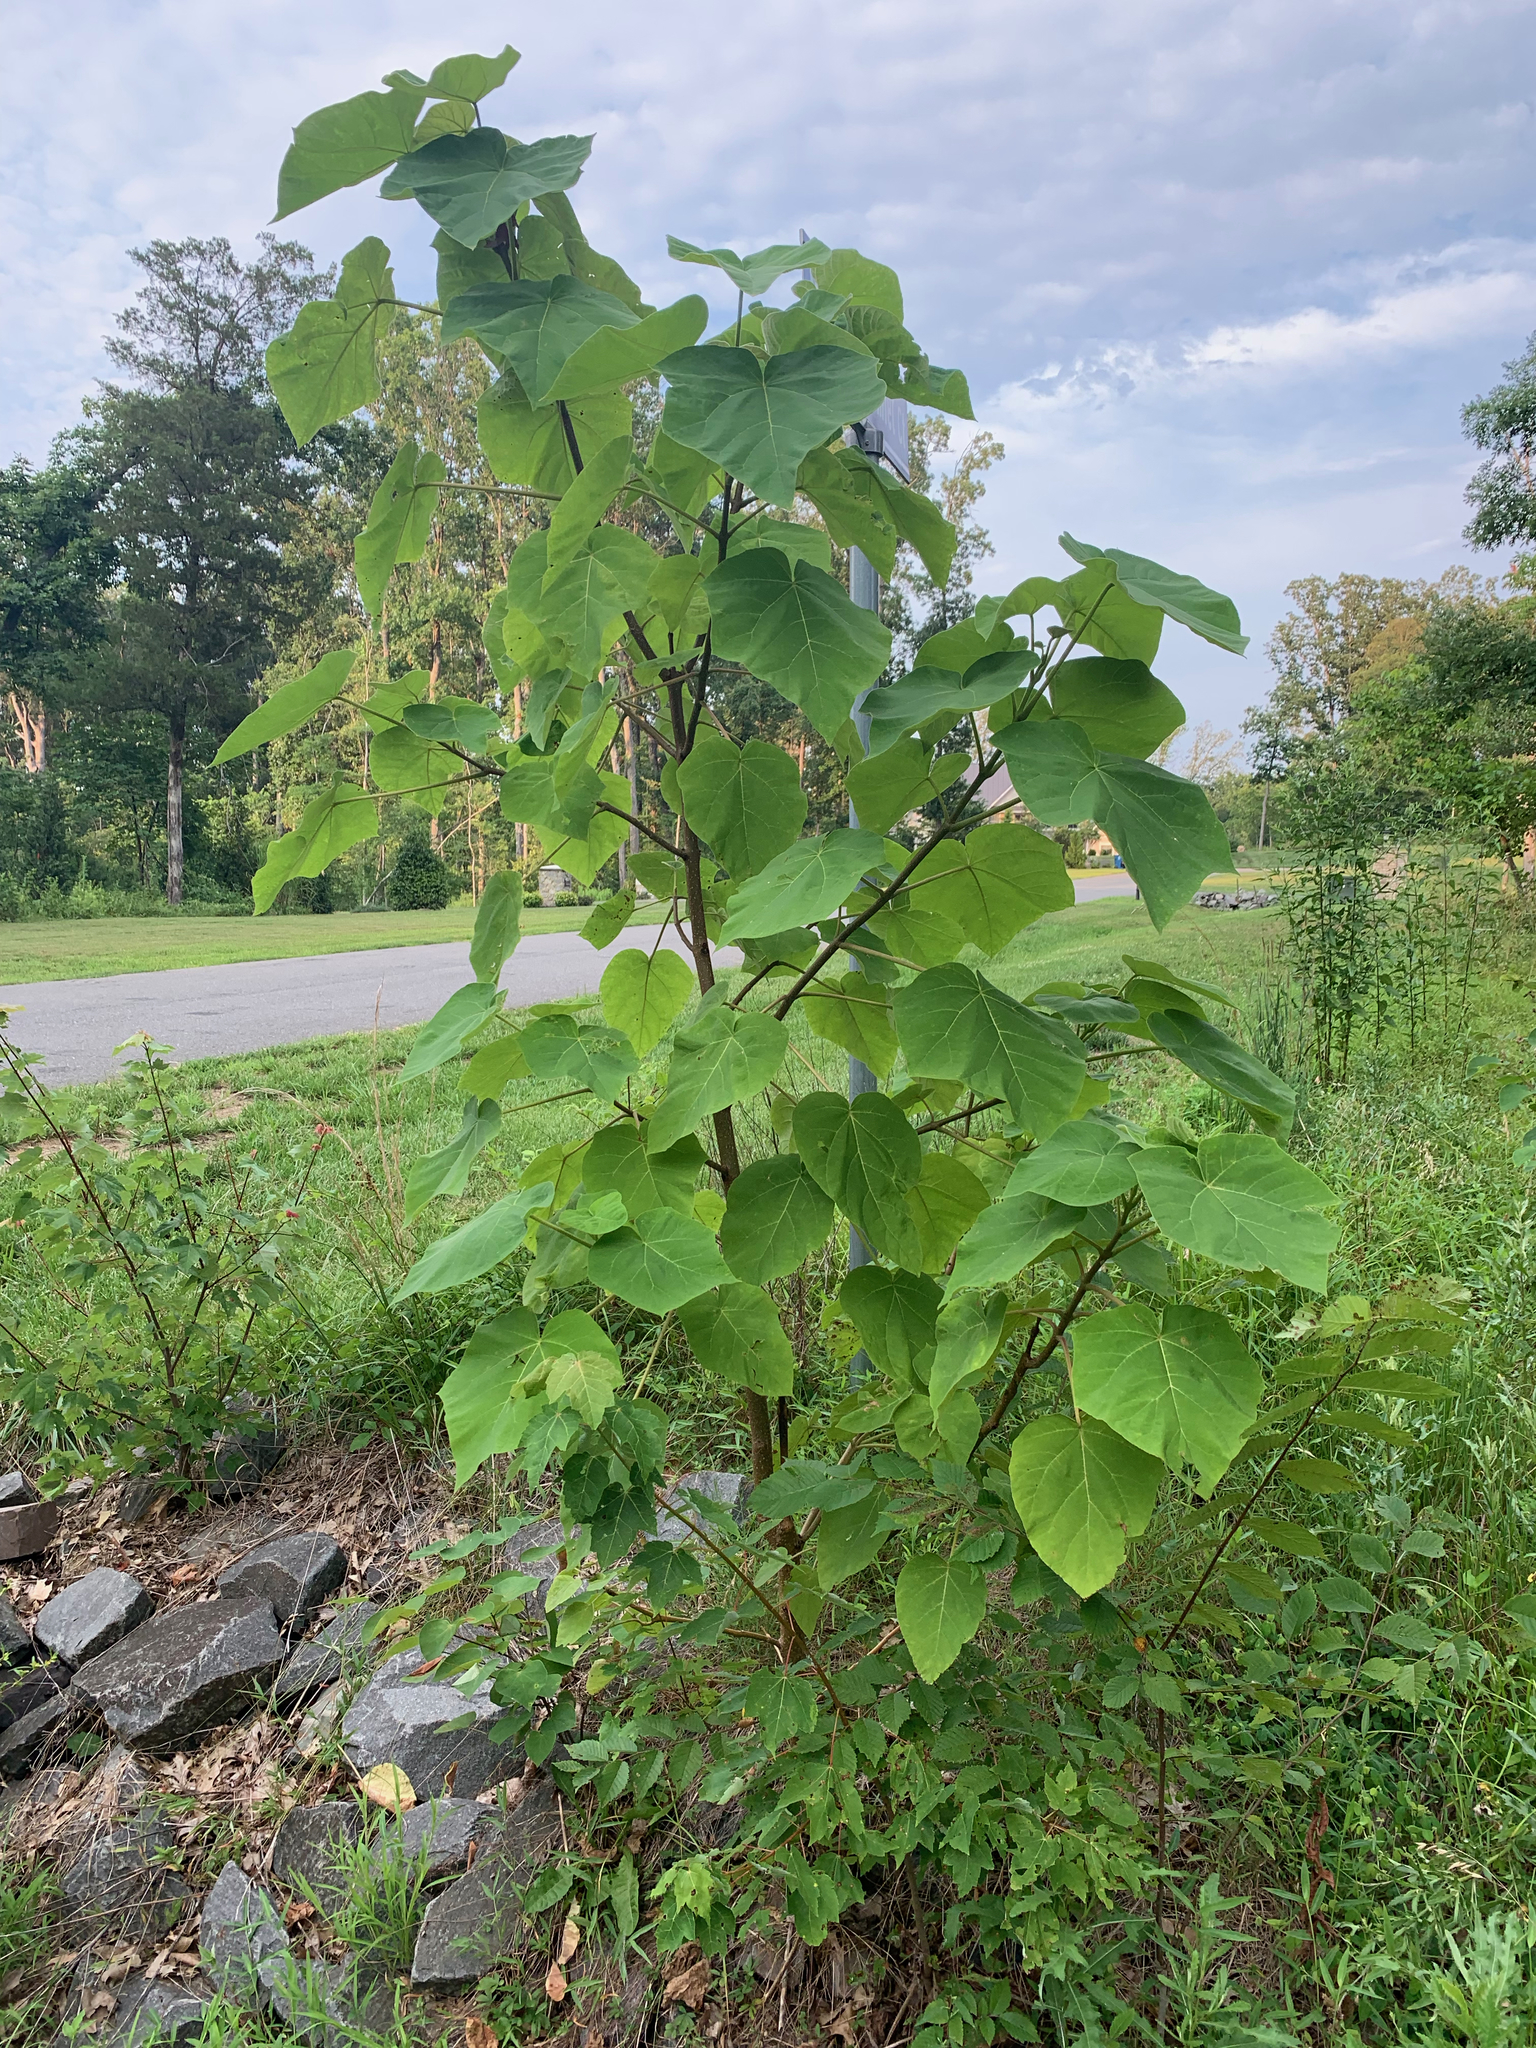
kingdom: Plantae
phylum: Tracheophyta
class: Magnoliopsida
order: Lamiales
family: Paulowniaceae
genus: Paulownia
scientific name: Paulownia tomentosa
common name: Foxglove-tree
